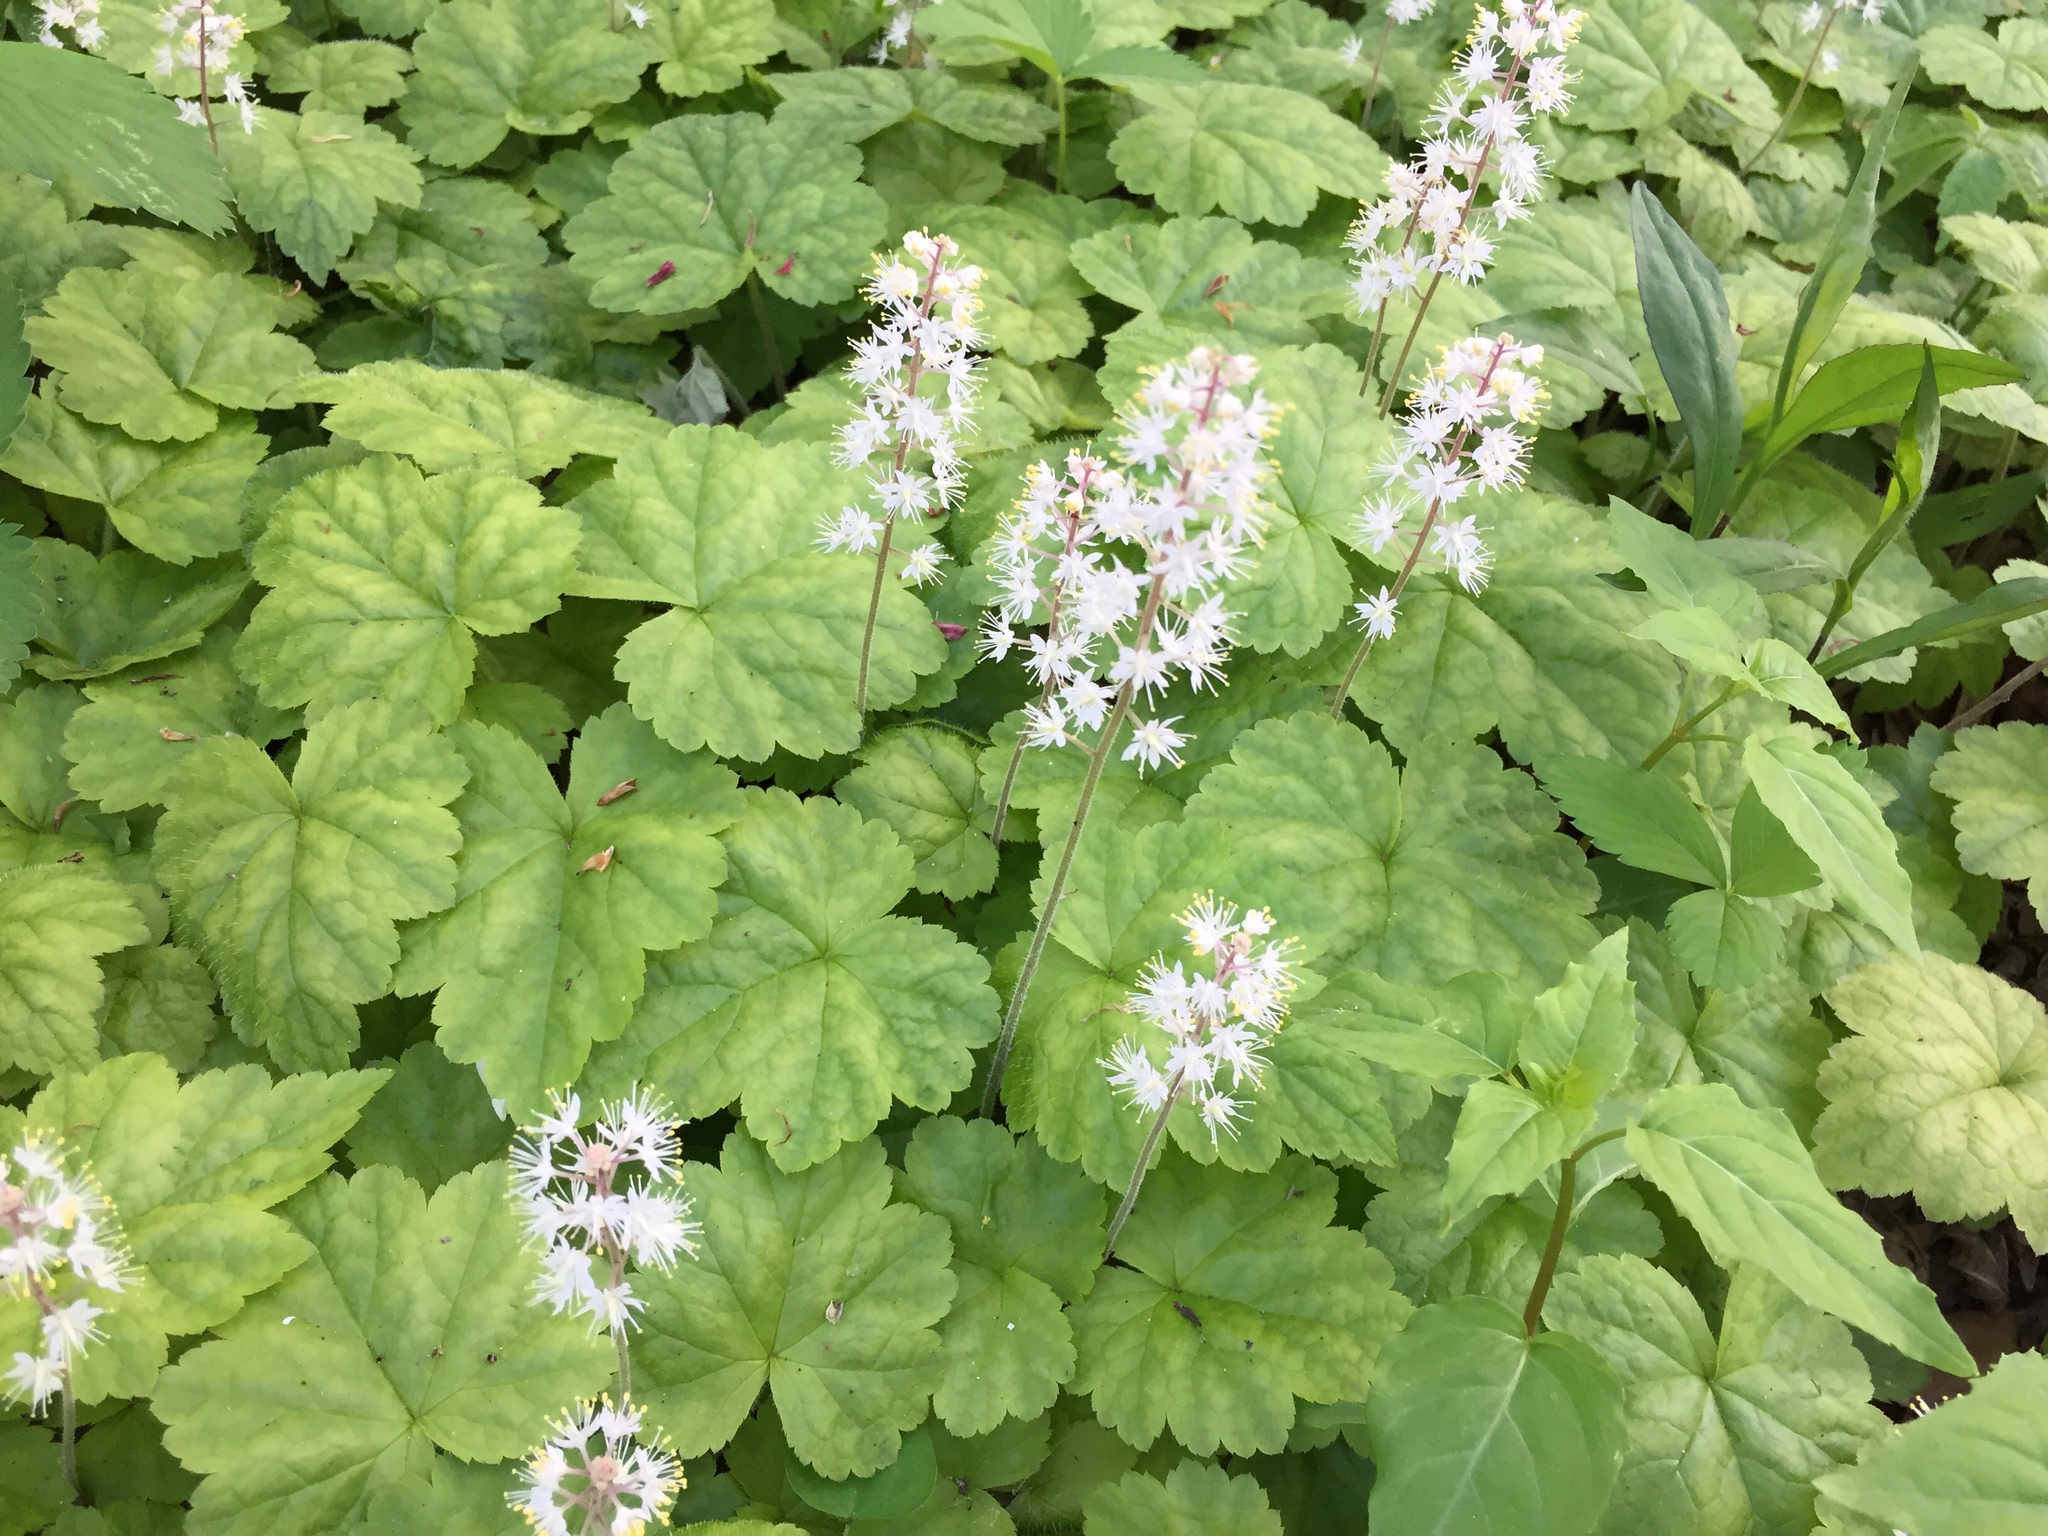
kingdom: Plantae
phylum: Tracheophyta
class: Magnoliopsida
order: Saxifragales
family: Saxifragaceae
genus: Tiarella
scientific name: Tiarella stolonifera
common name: Stoloniferous foamflower
